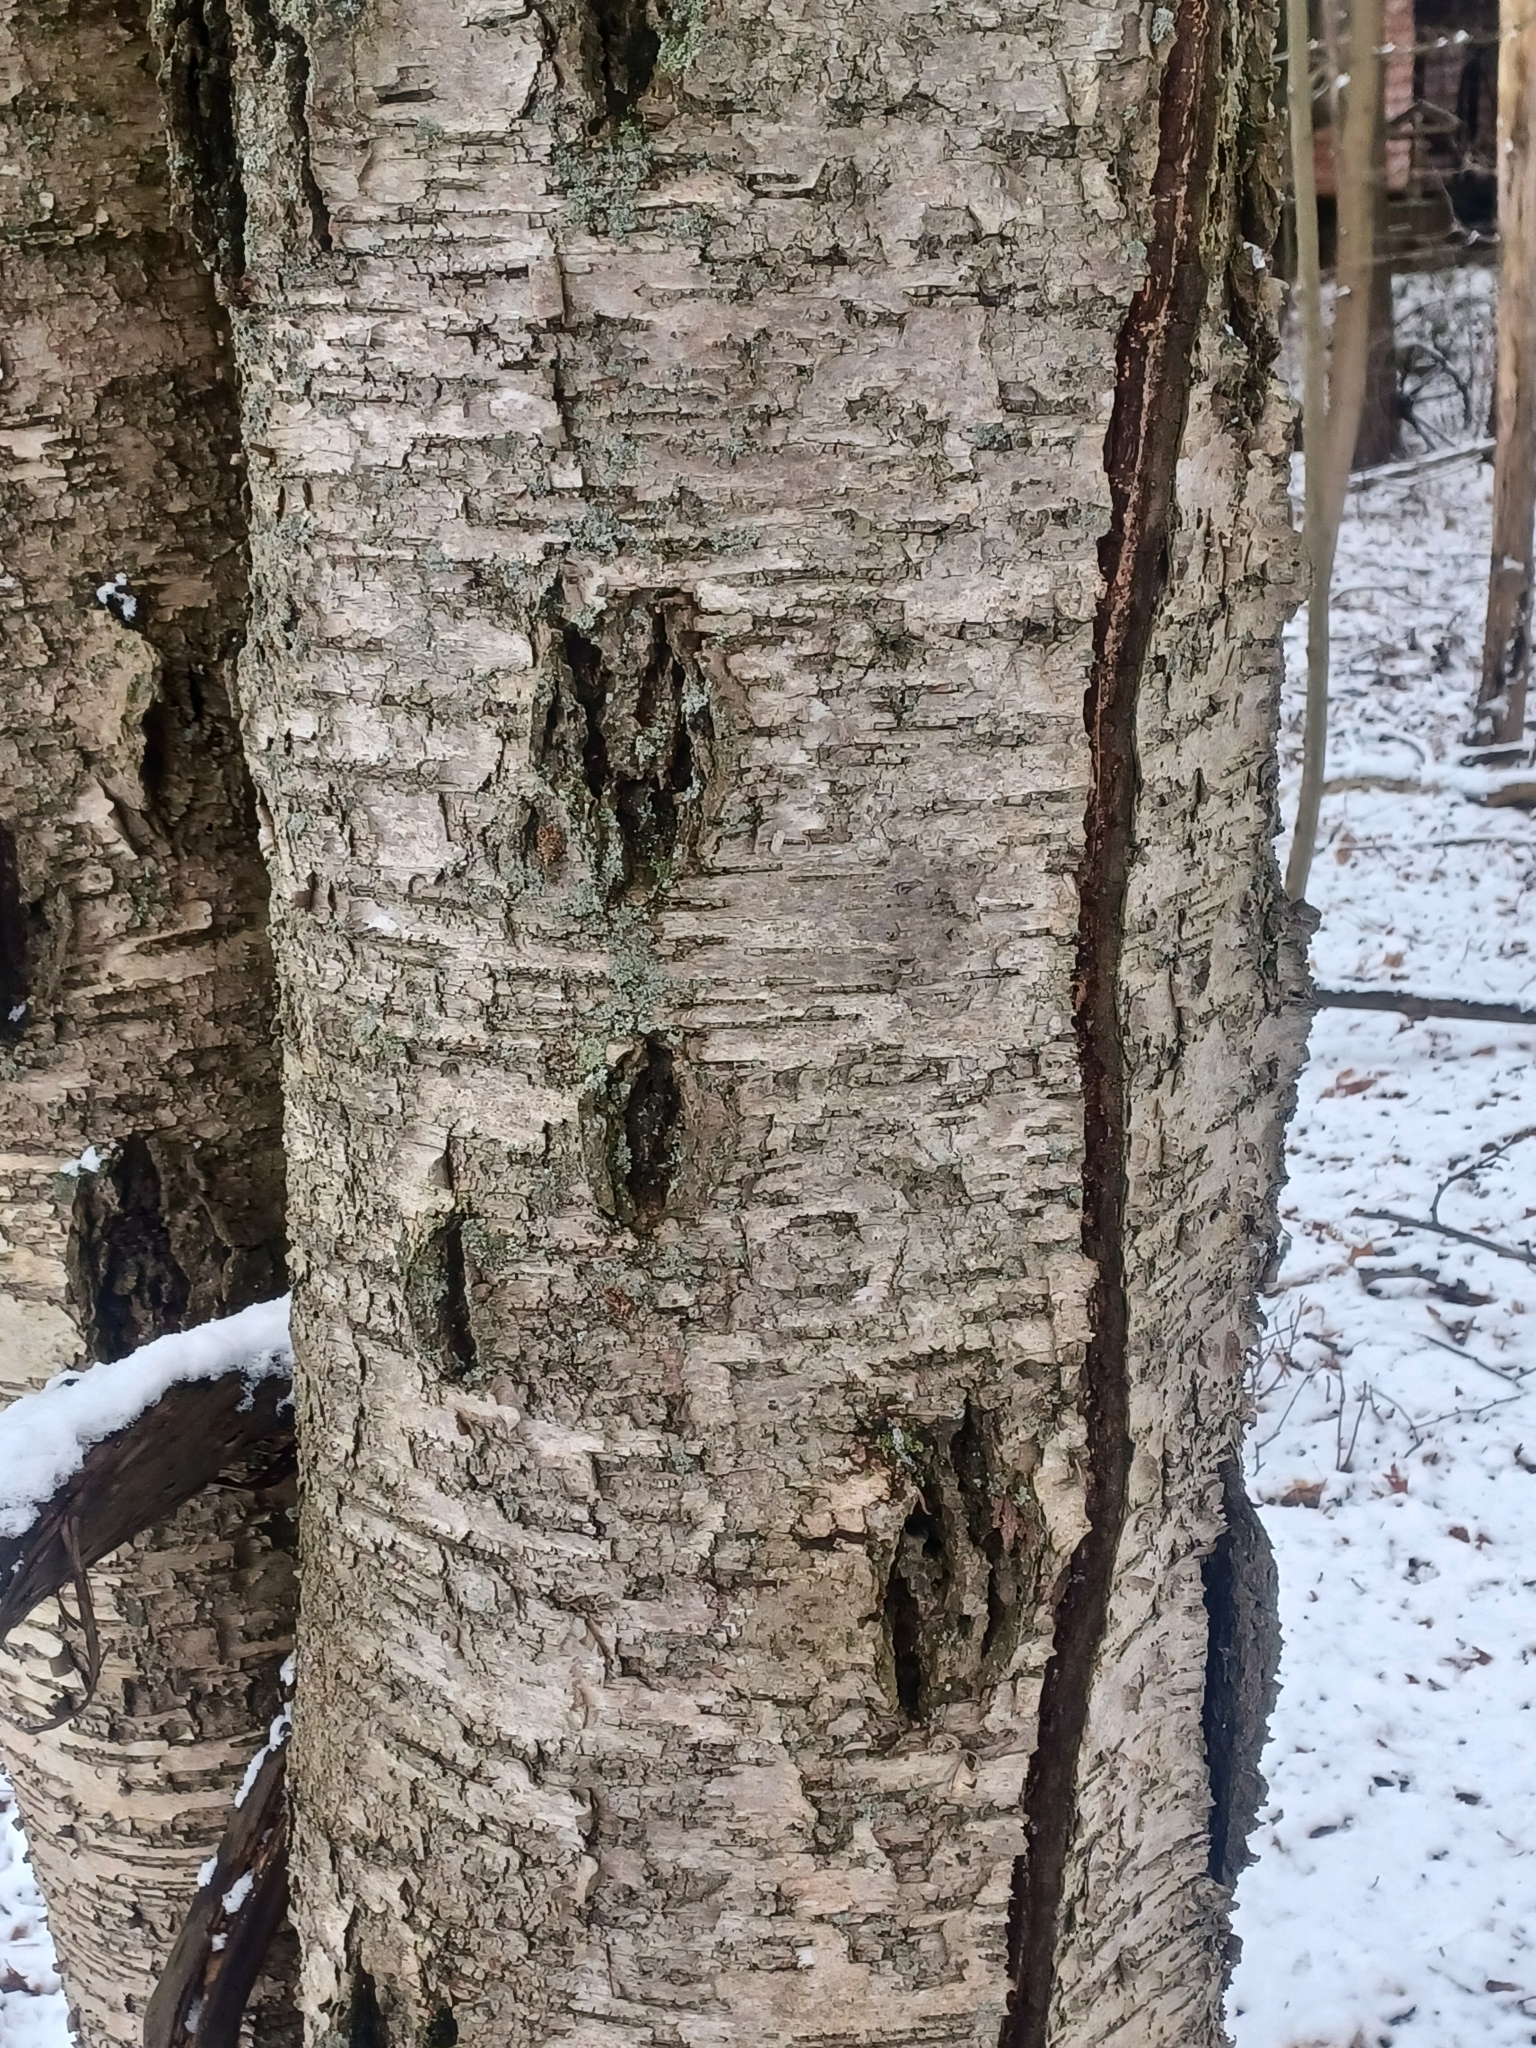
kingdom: Plantae
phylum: Tracheophyta
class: Magnoliopsida
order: Fagales
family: Betulaceae
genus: Betula
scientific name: Betula alleghaniensis
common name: Yellow birch
